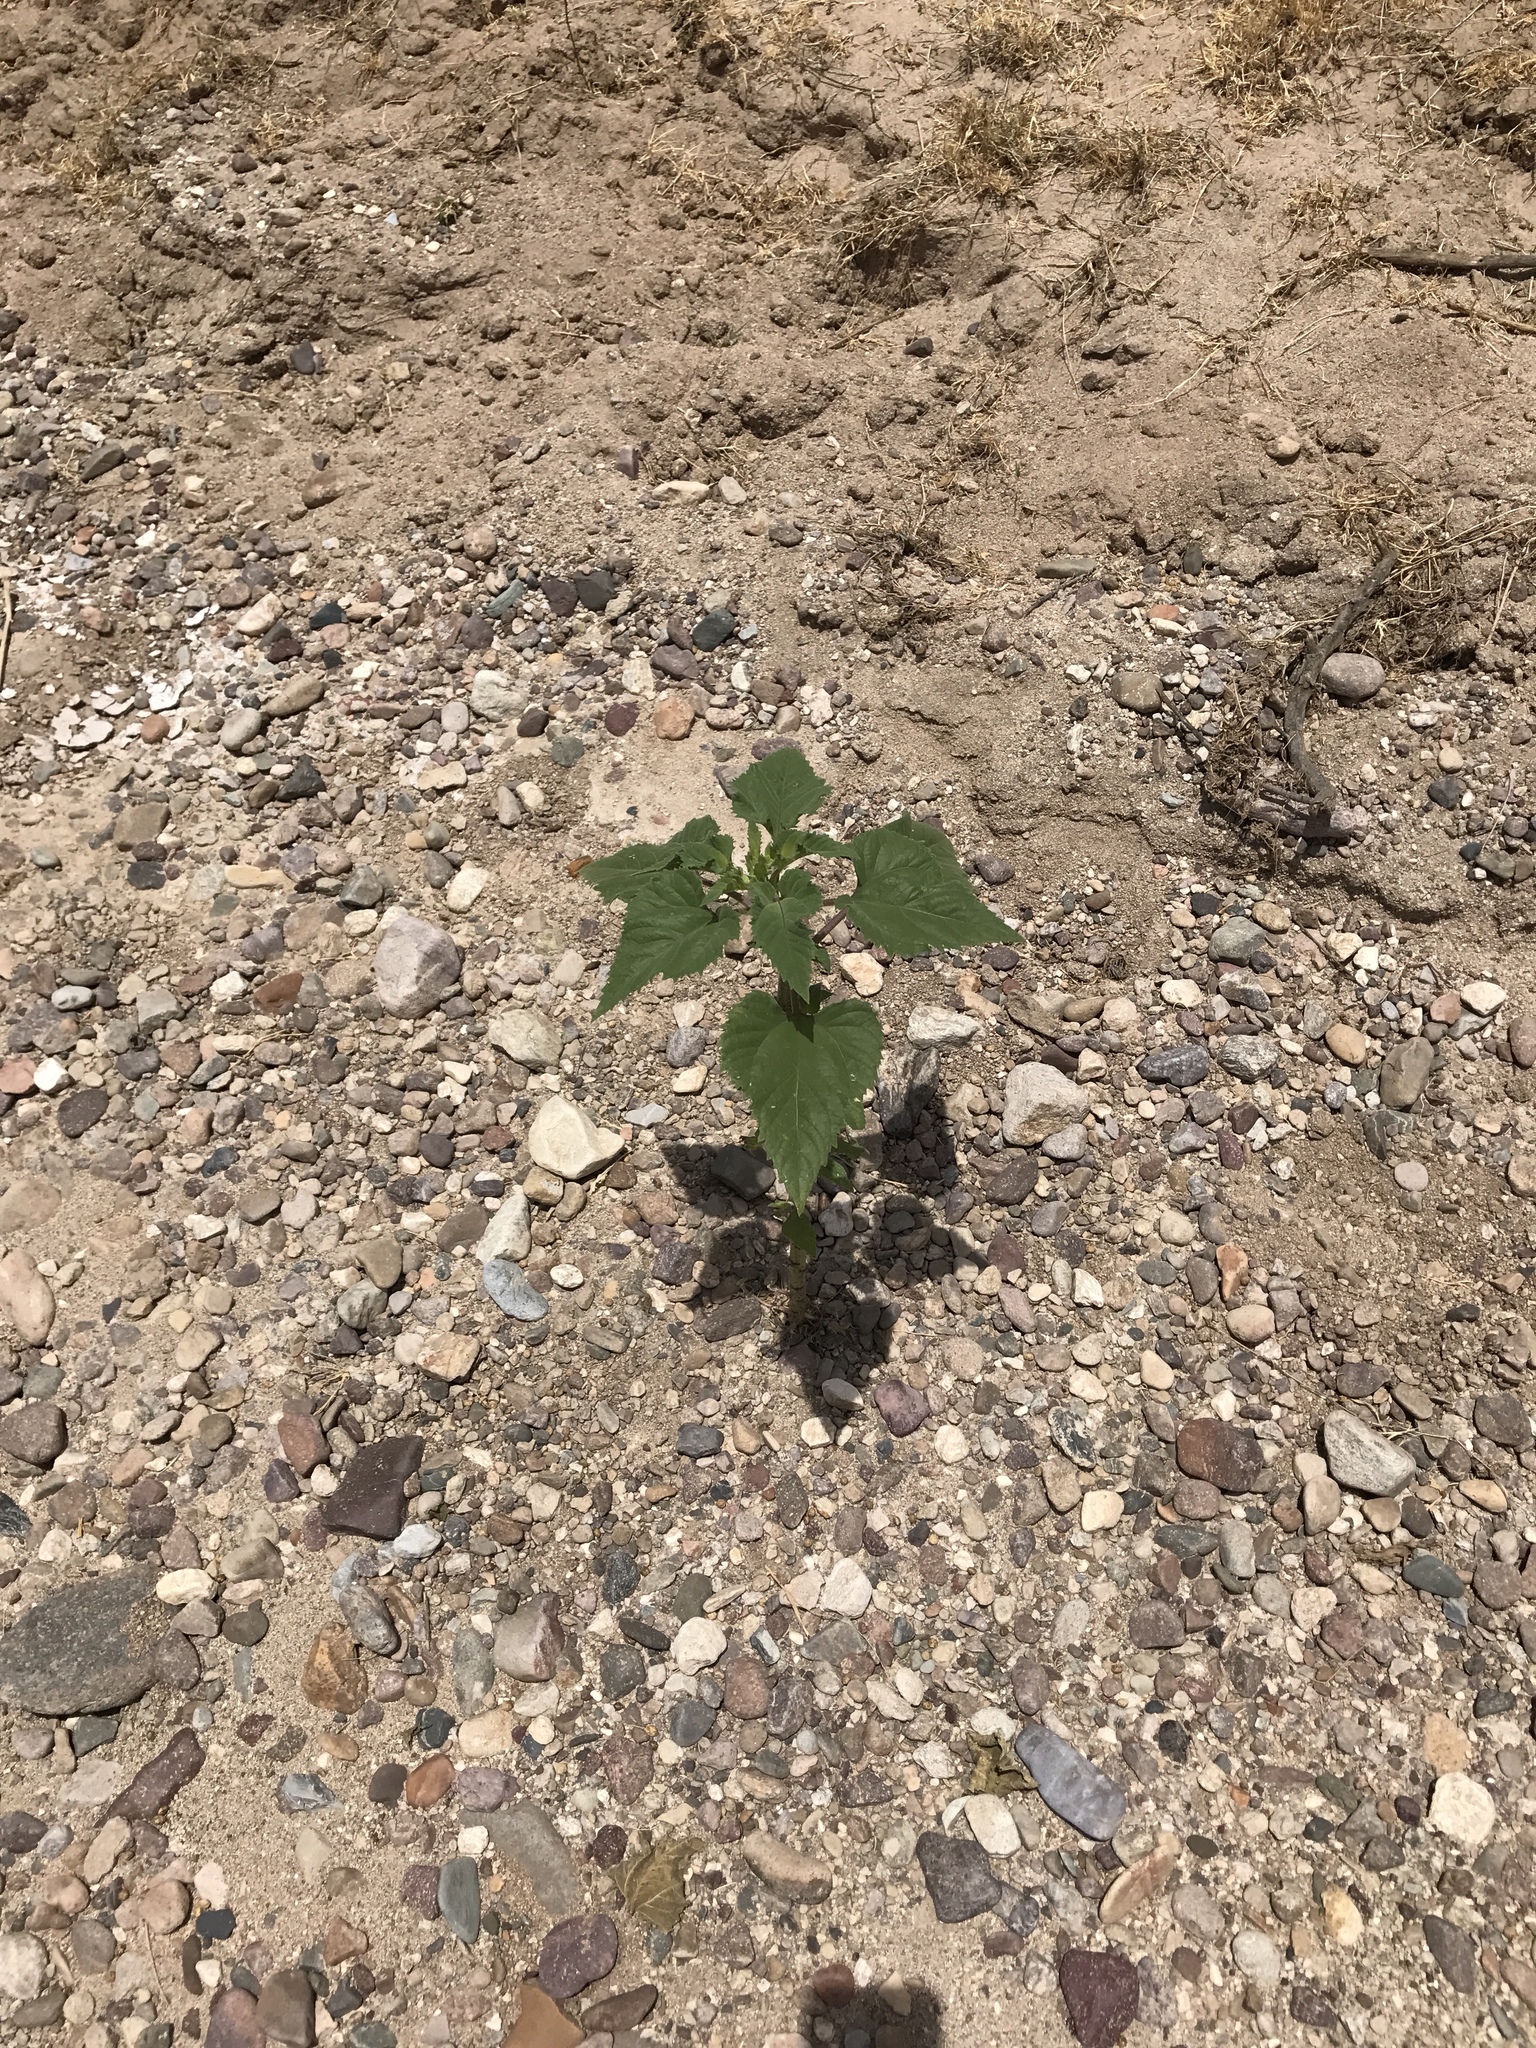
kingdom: Plantae
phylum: Tracheophyta
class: Magnoliopsida
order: Asterales
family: Asteraceae
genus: Xanthium
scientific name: Xanthium strumarium
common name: Rough cocklebur
